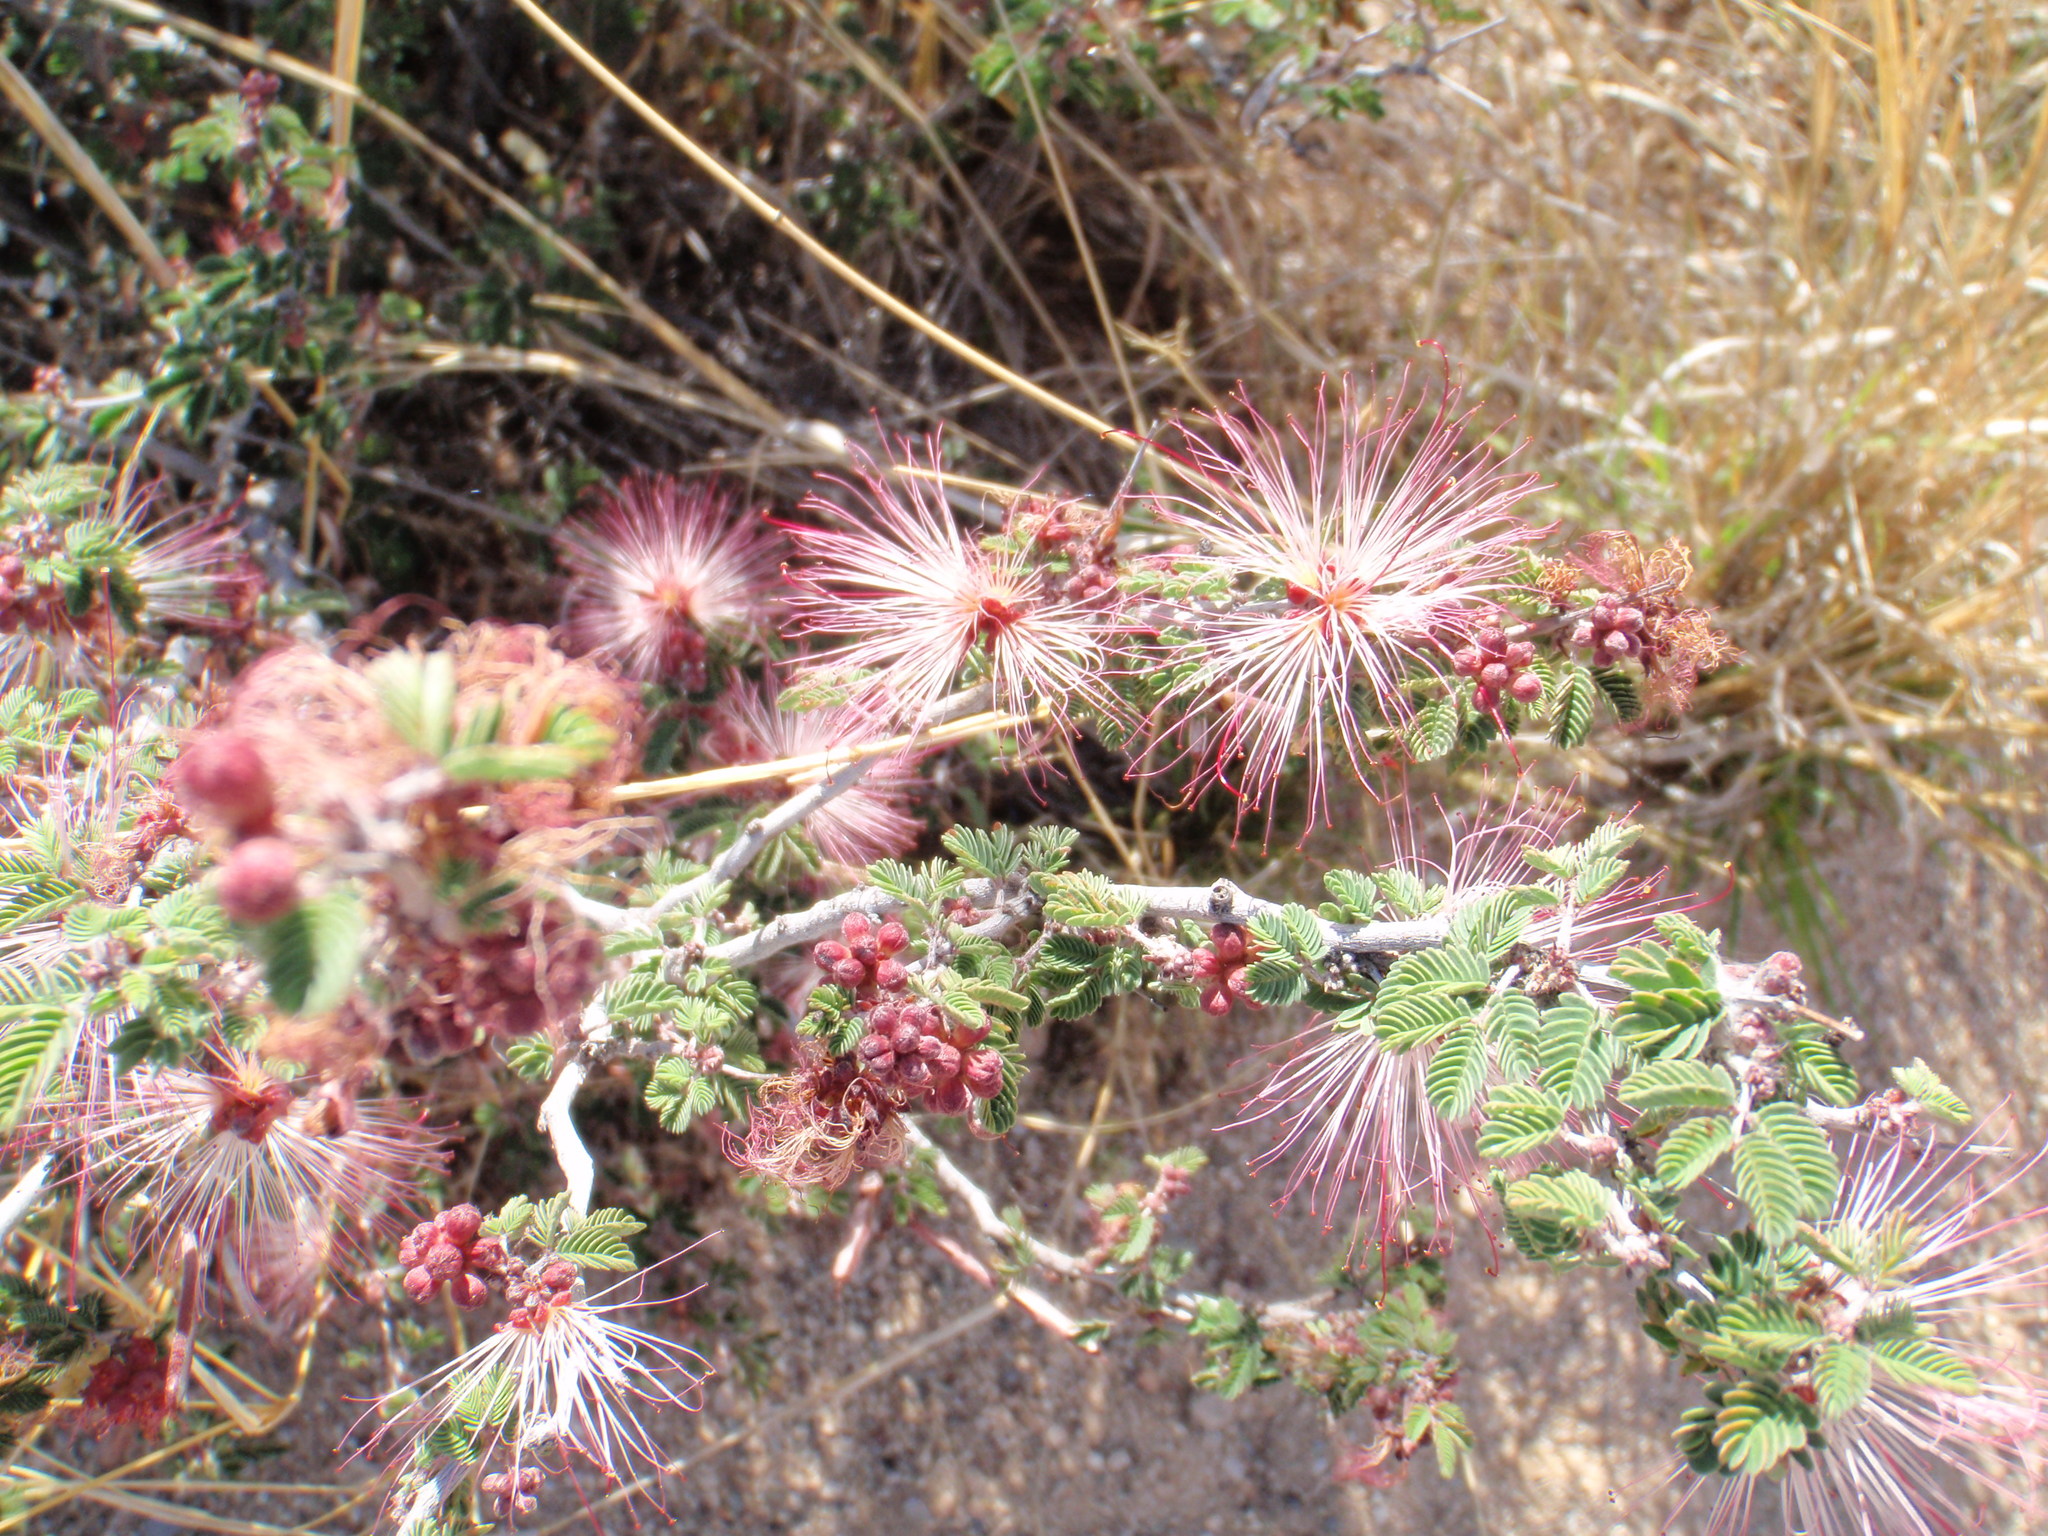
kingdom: Plantae
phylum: Tracheophyta
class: Magnoliopsida
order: Fabales
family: Fabaceae
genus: Calliandra
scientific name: Calliandra eriophylla
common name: Fairy-duster
